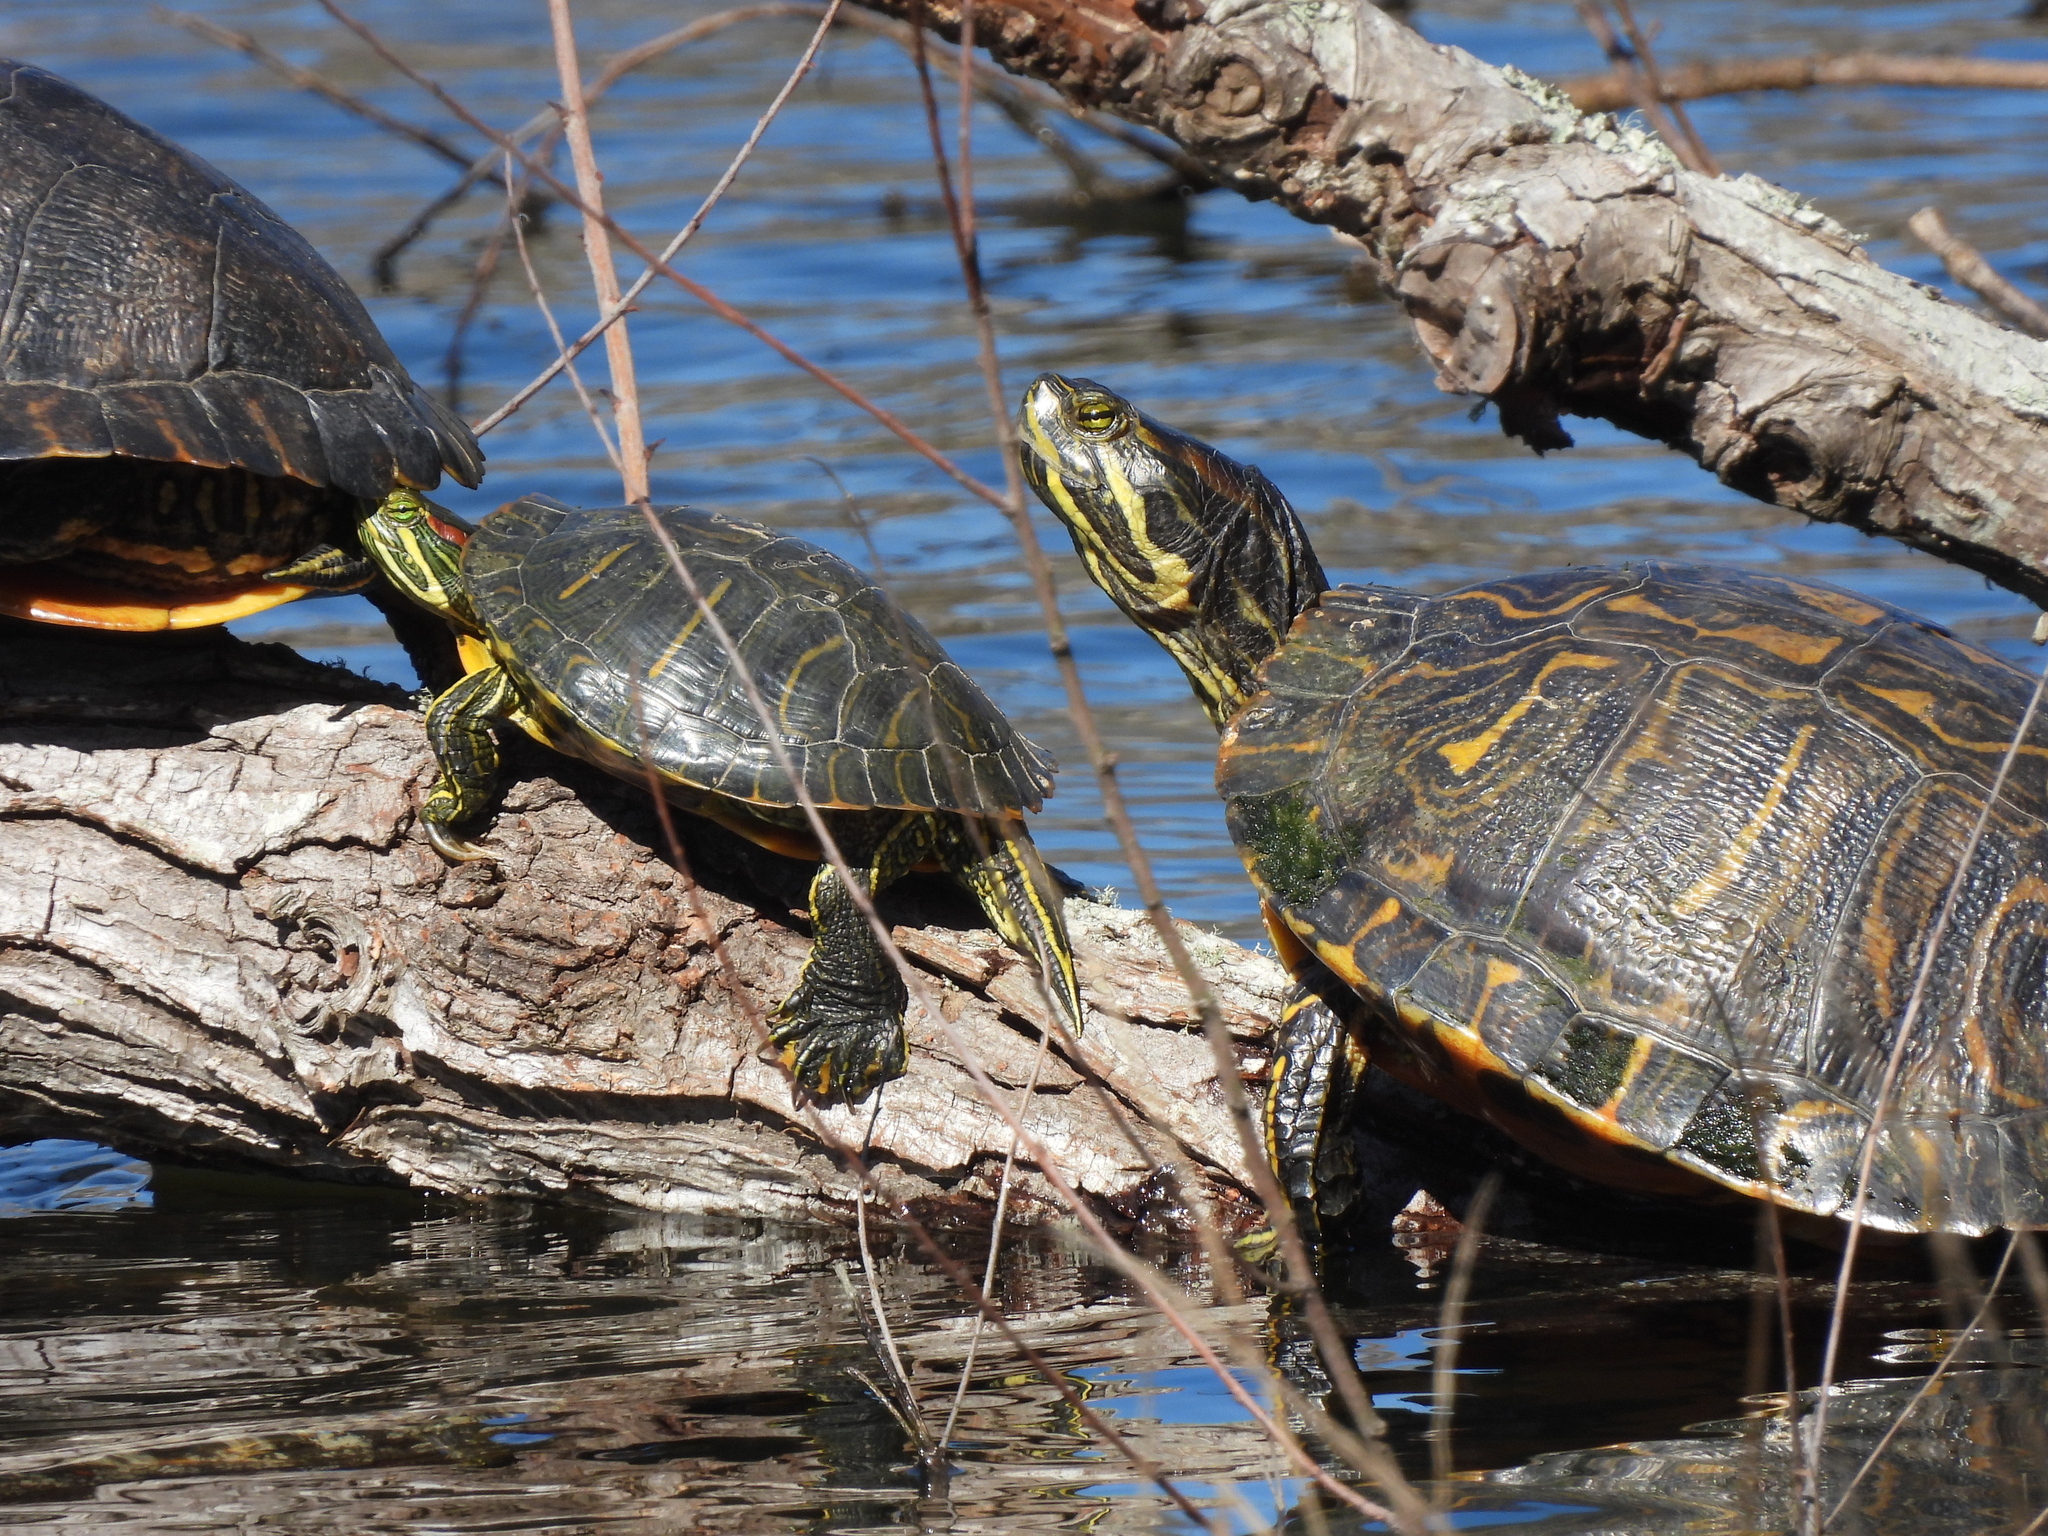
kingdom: Animalia
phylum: Chordata
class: Testudines
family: Emydidae
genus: Trachemys
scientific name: Trachemys scripta
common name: Slider
